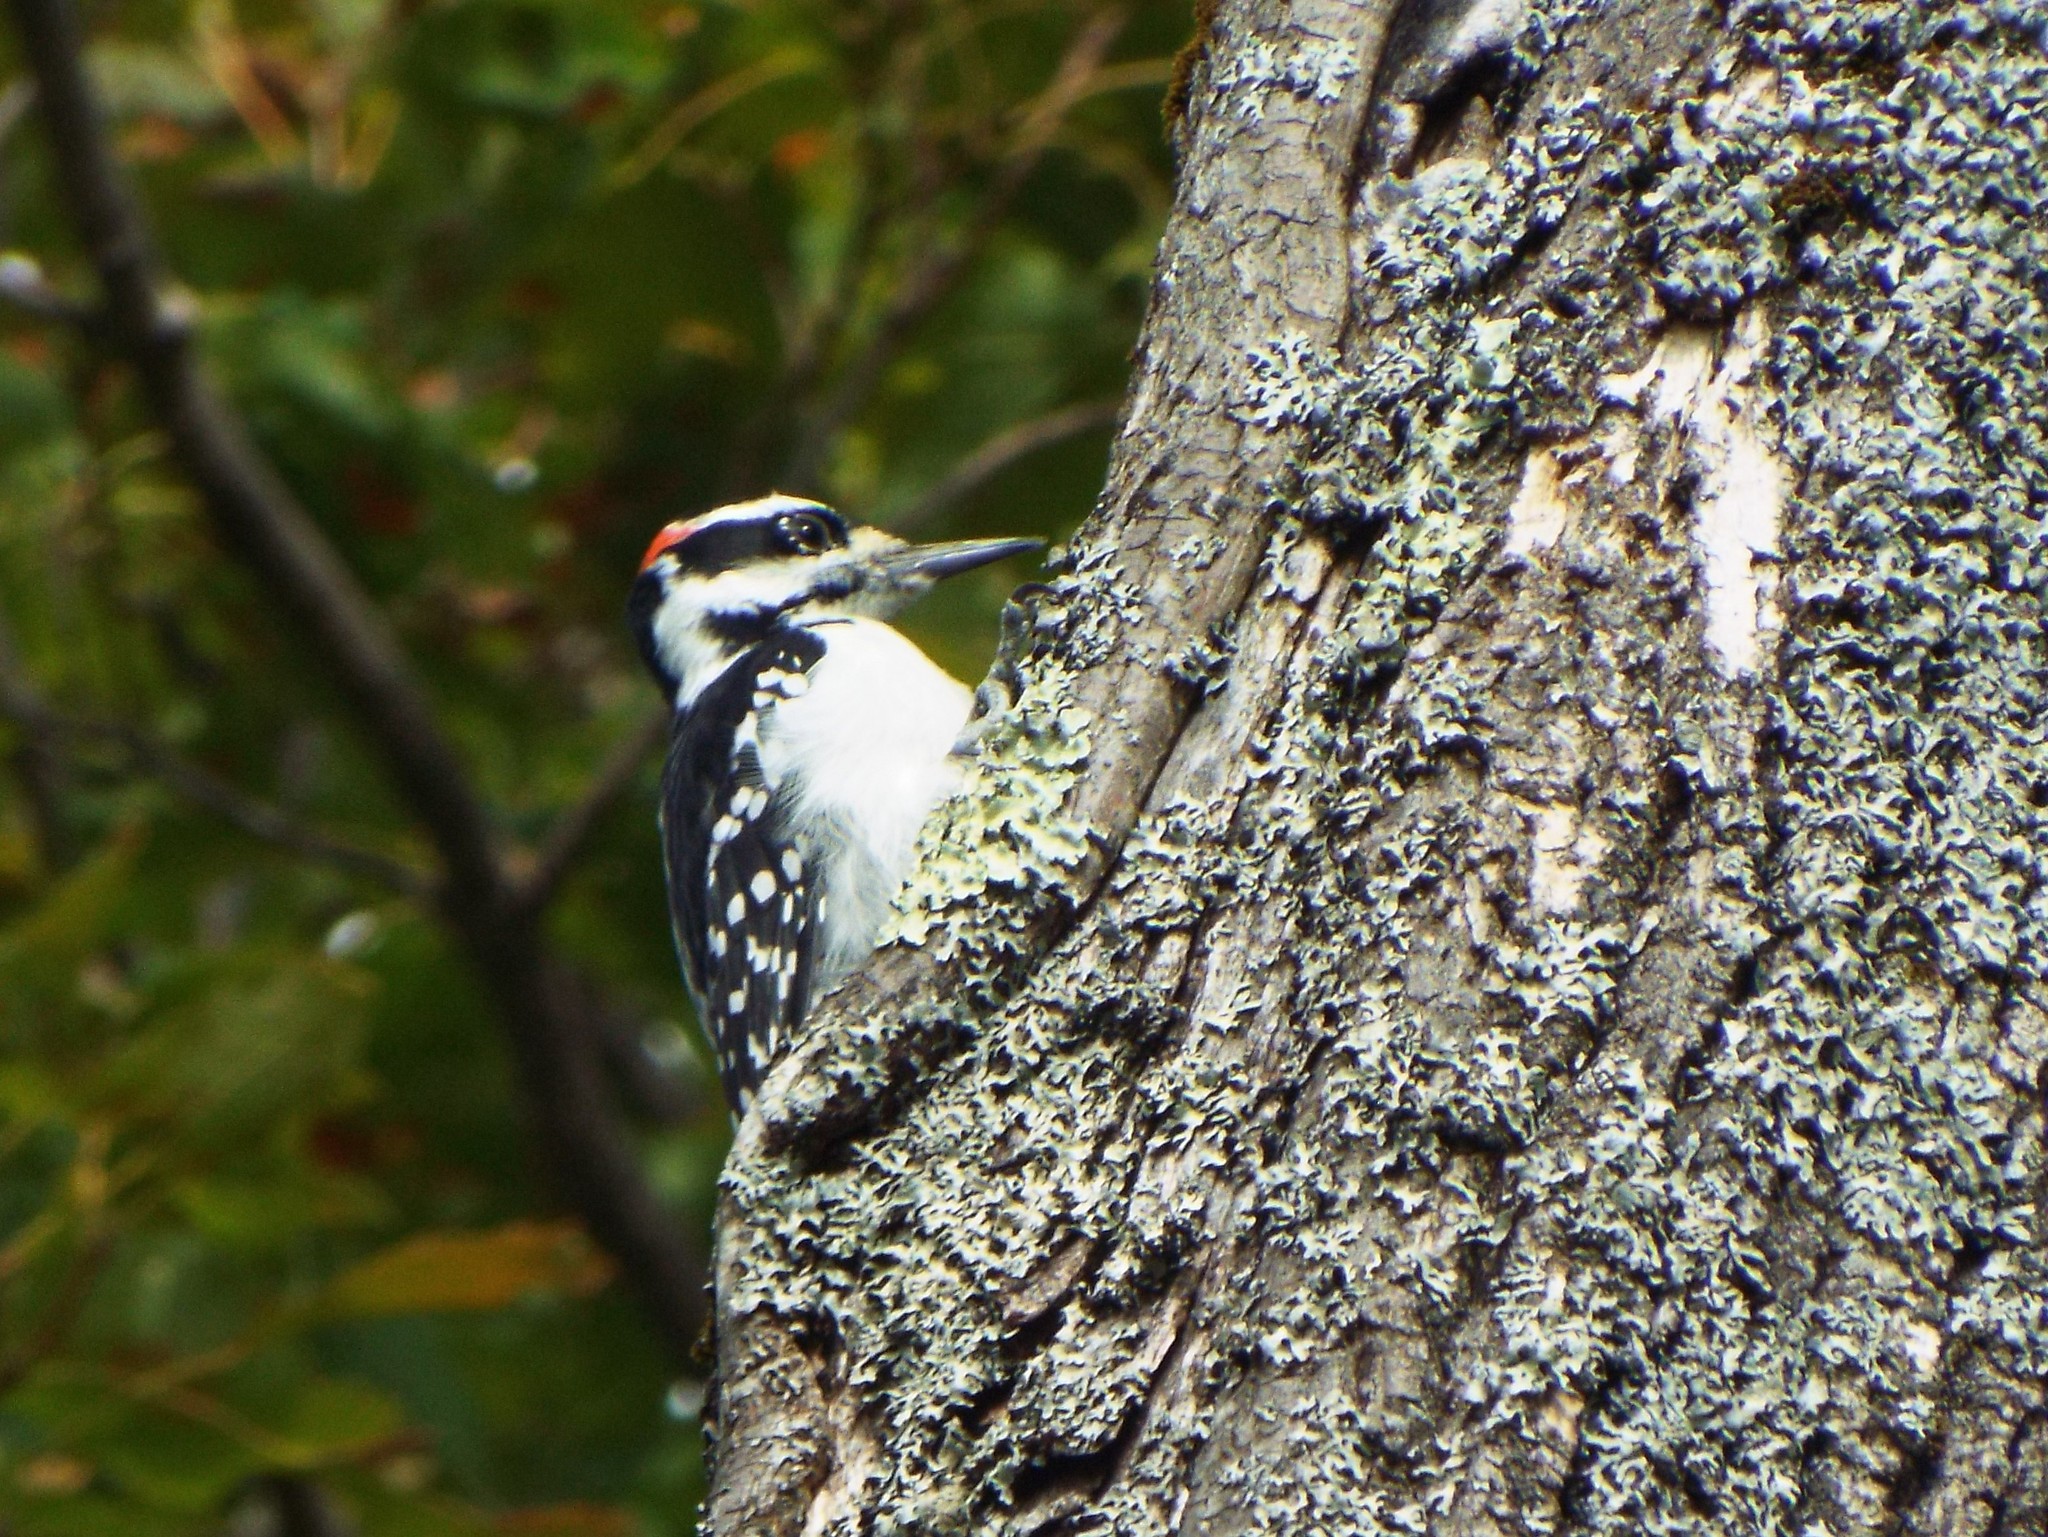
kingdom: Animalia
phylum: Chordata
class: Aves
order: Piciformes
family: Picidae
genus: Leuconotopicus
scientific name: Leuconotopicus villosus
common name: Hairy woodpecker
